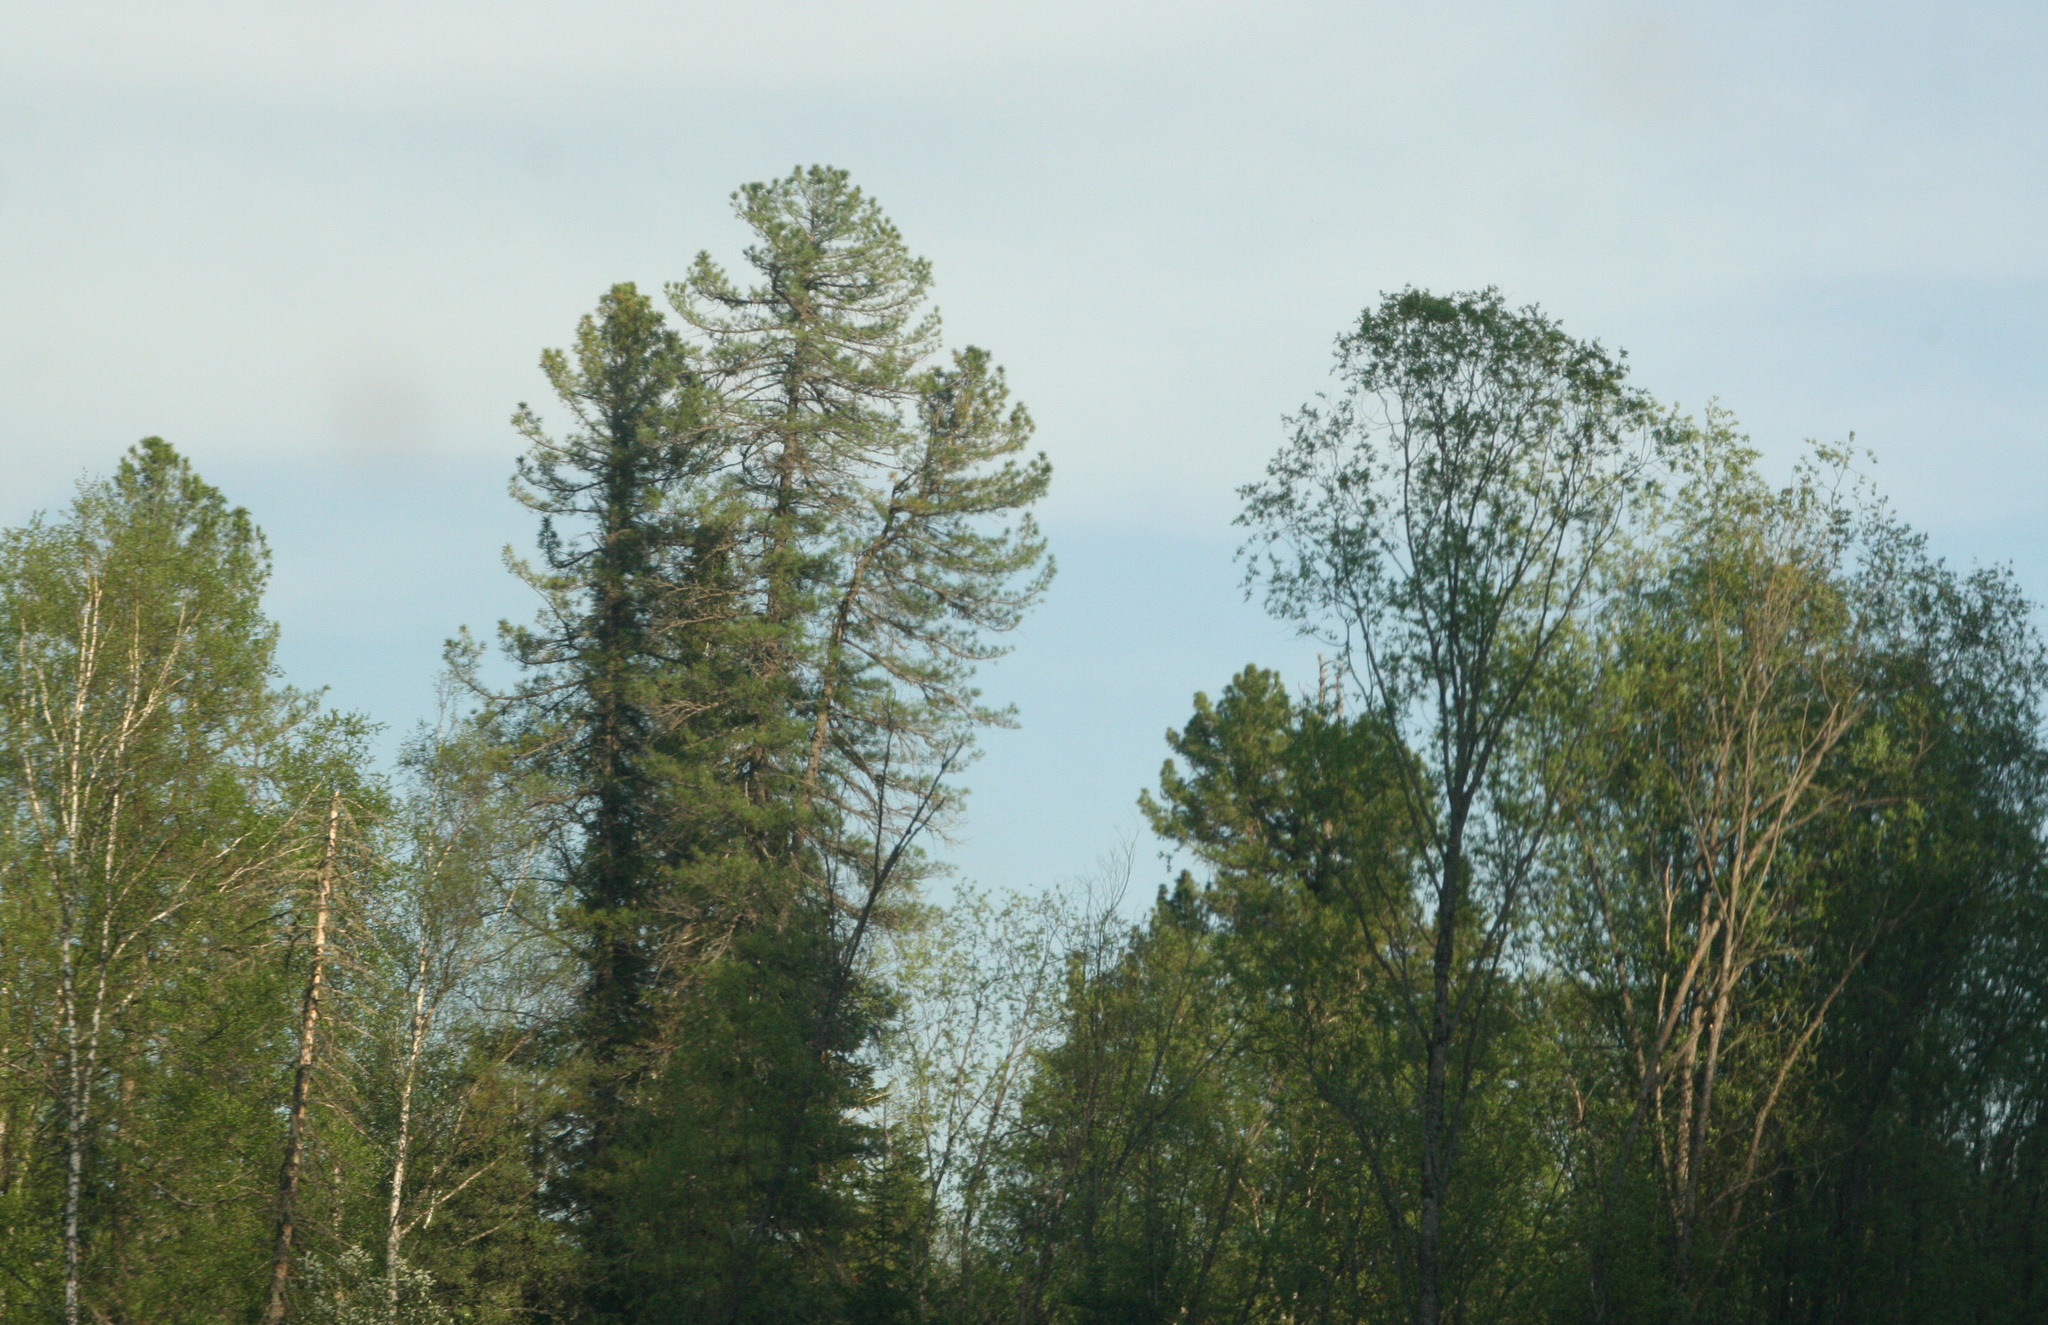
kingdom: Plantae
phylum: Tracheophyta
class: Pinopsida
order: Pinales
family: Pinaceae
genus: Pinus
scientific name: Pinus sibirica
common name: Siberian pine
